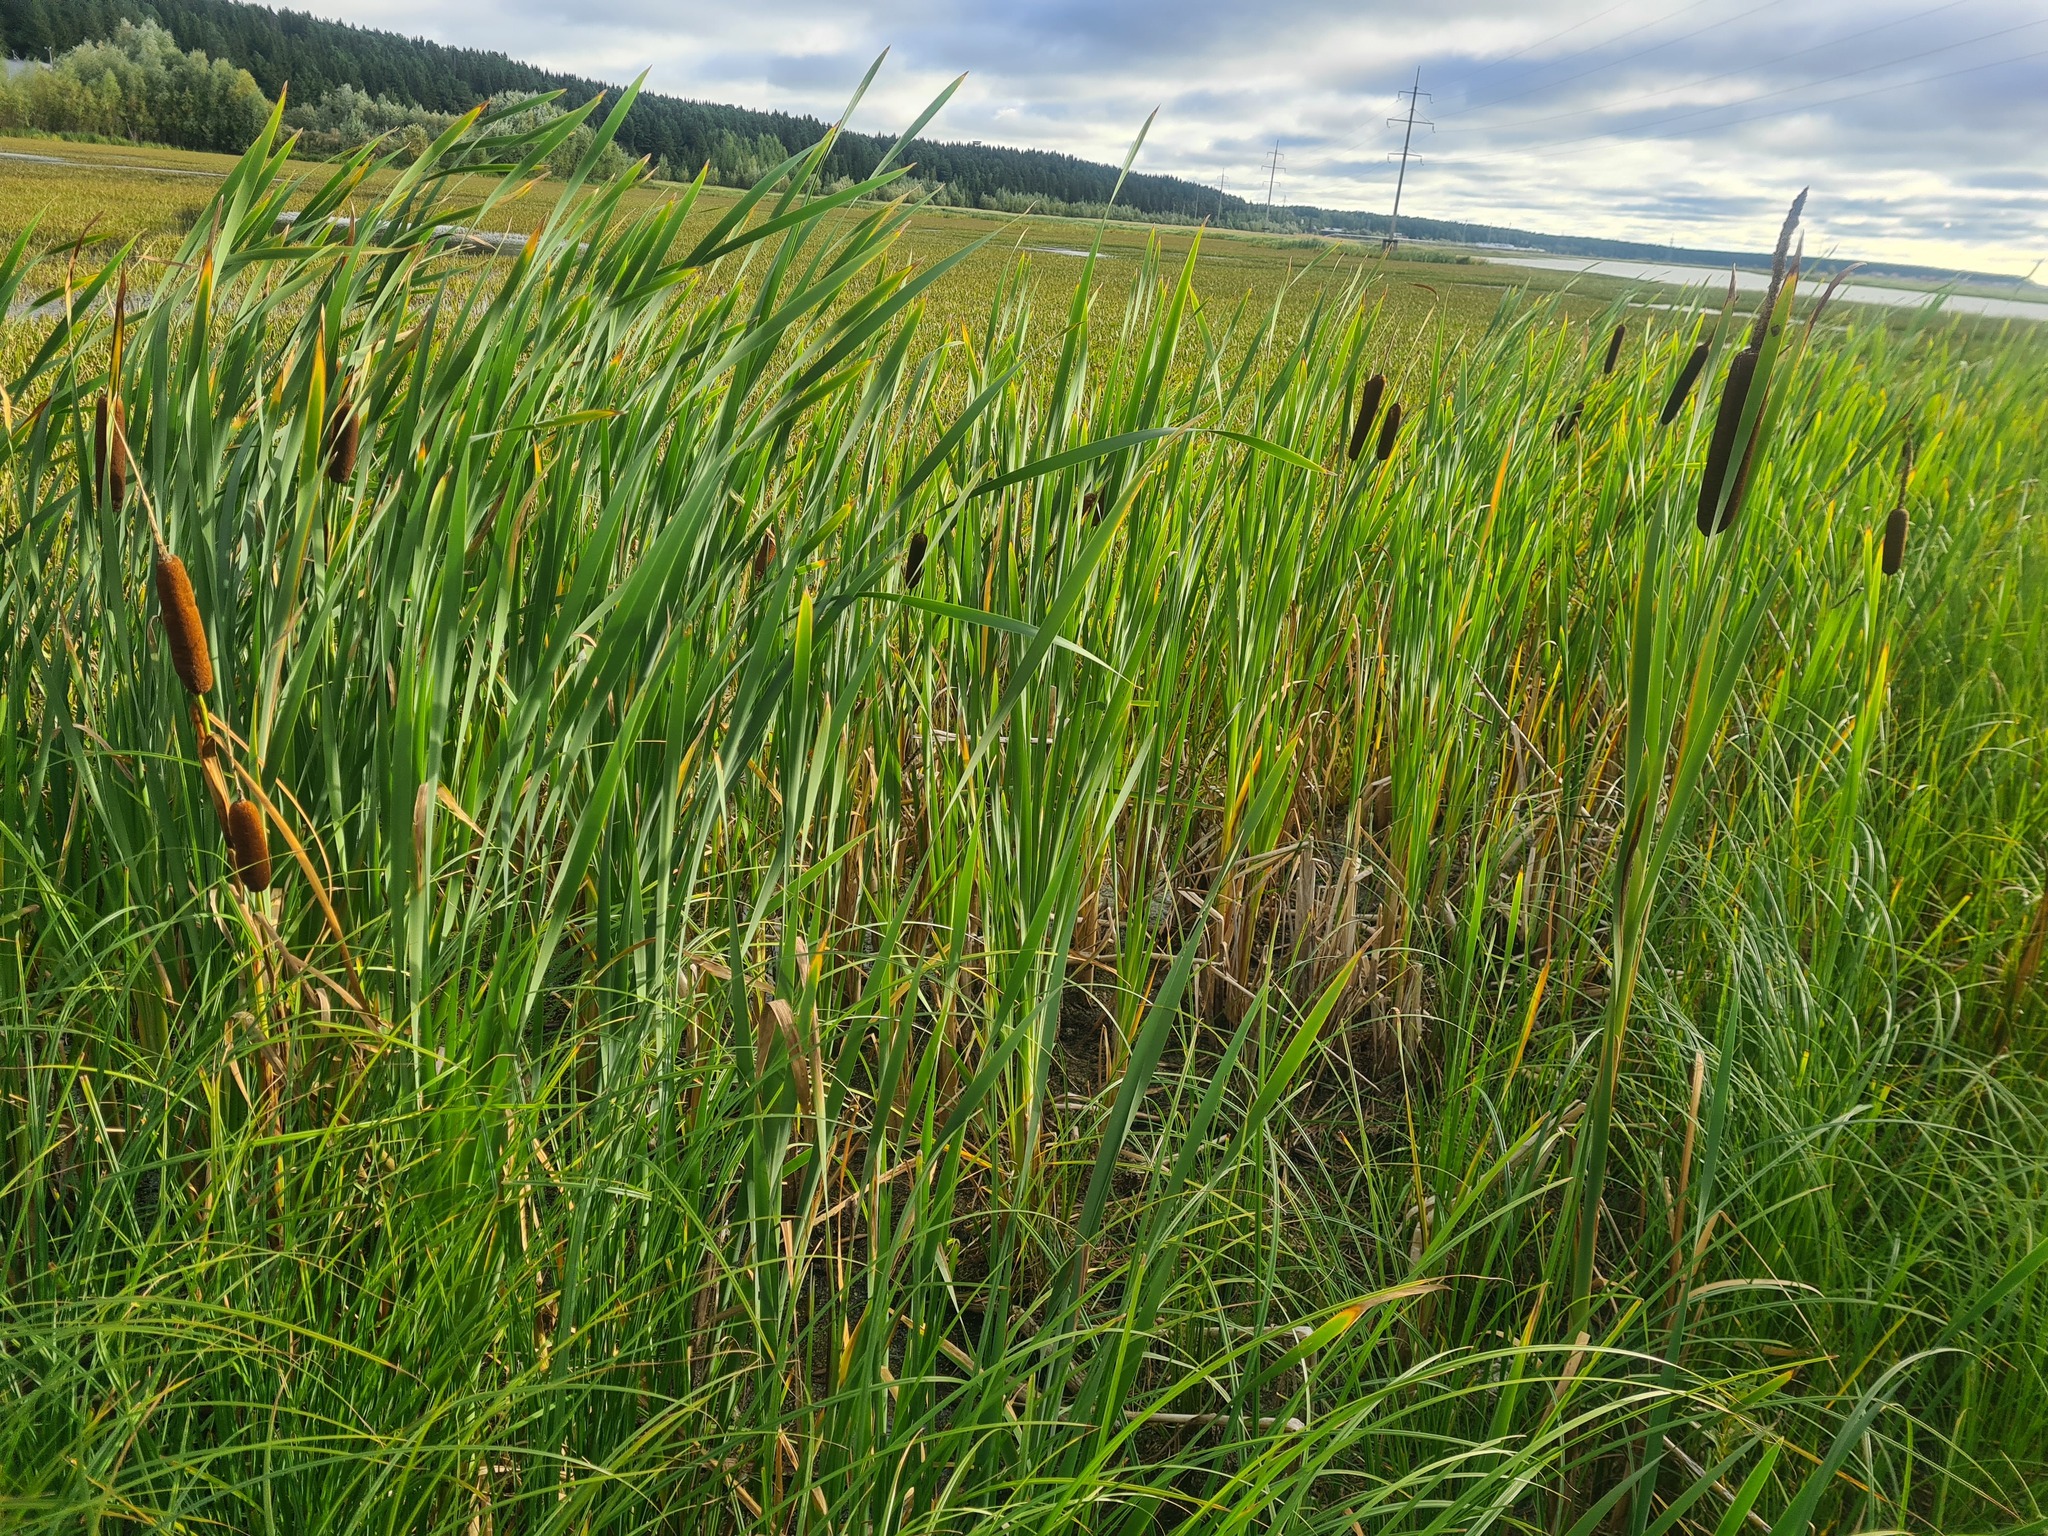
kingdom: Plantae
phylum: Tracheophyta
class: Liliopsida
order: Poales
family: Typhaceae
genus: Typha
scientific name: Typha latifolia
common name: Broadleaf cattail
